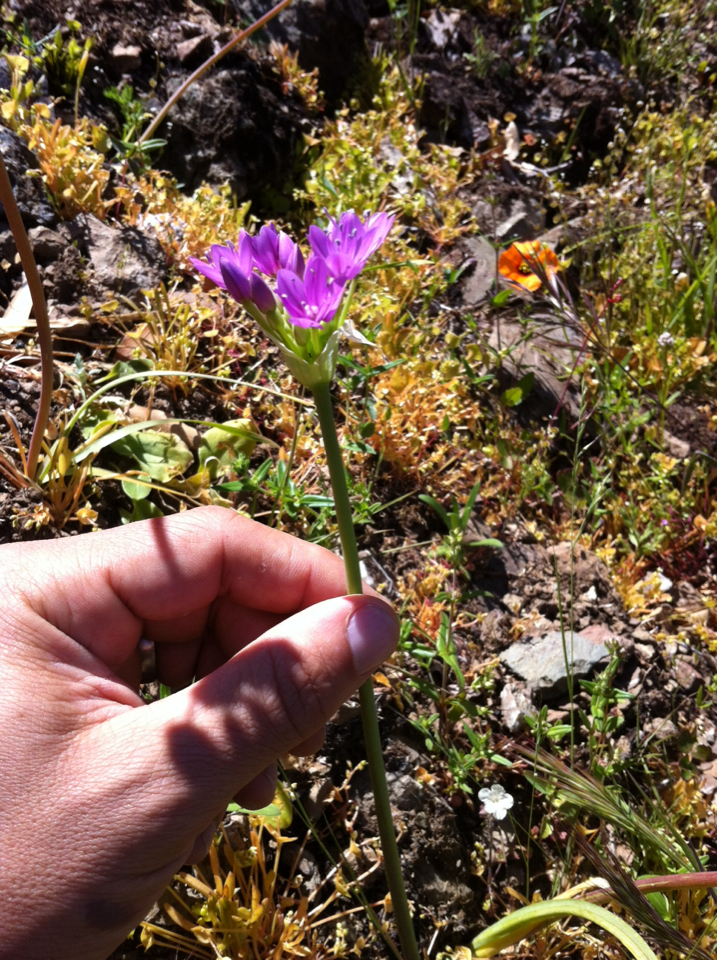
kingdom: Plantae
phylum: Tracheophyta
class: Liliopsida
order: Asparagales
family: Amaryllidaceae
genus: Allium
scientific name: Allium unifolium
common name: American garlic
